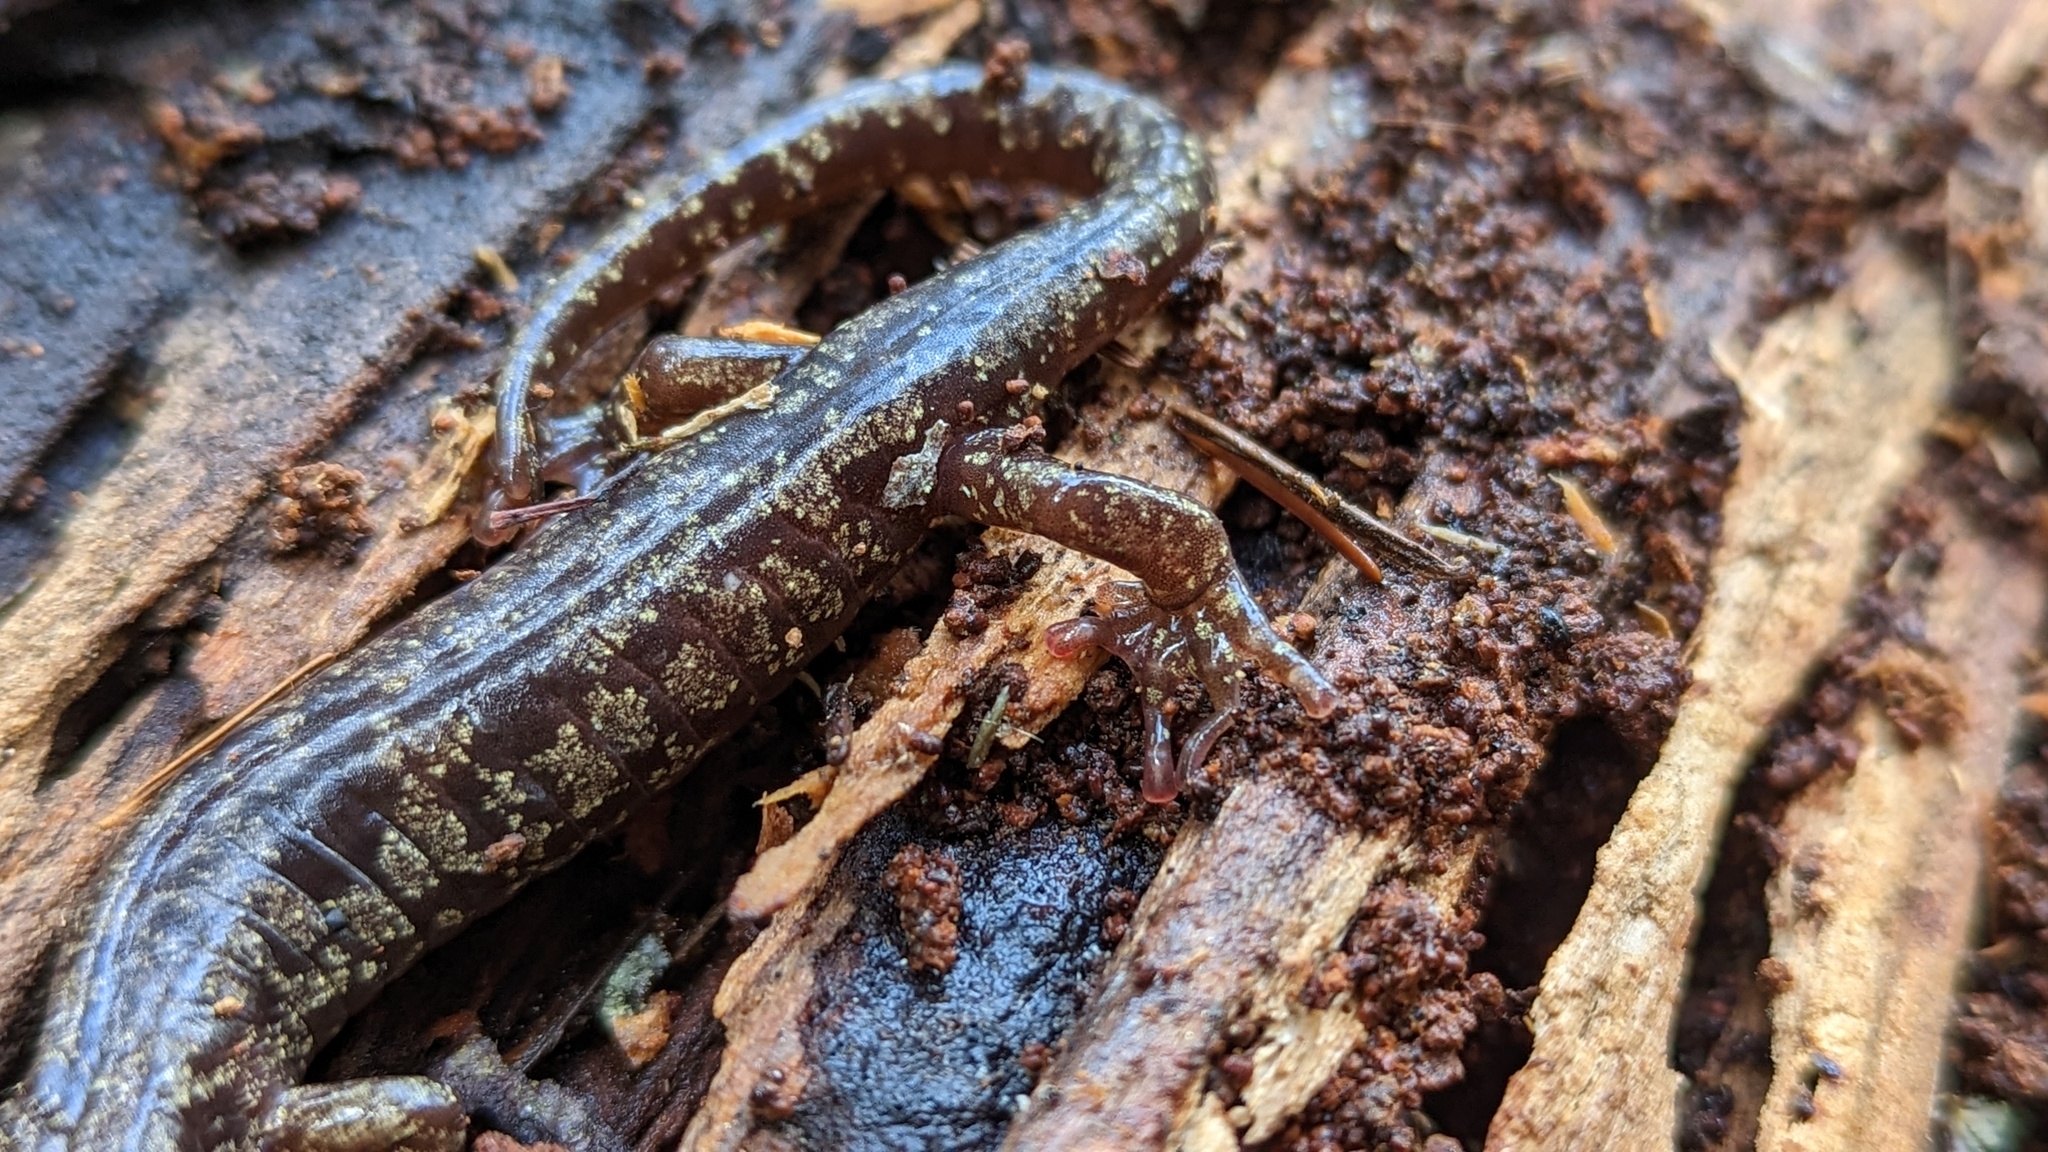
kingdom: Animalia
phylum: Chordata
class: Amphibia
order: Caudata
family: Plethodontidae
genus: Aneides
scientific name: Aneides vagrans
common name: Wandering salamander
